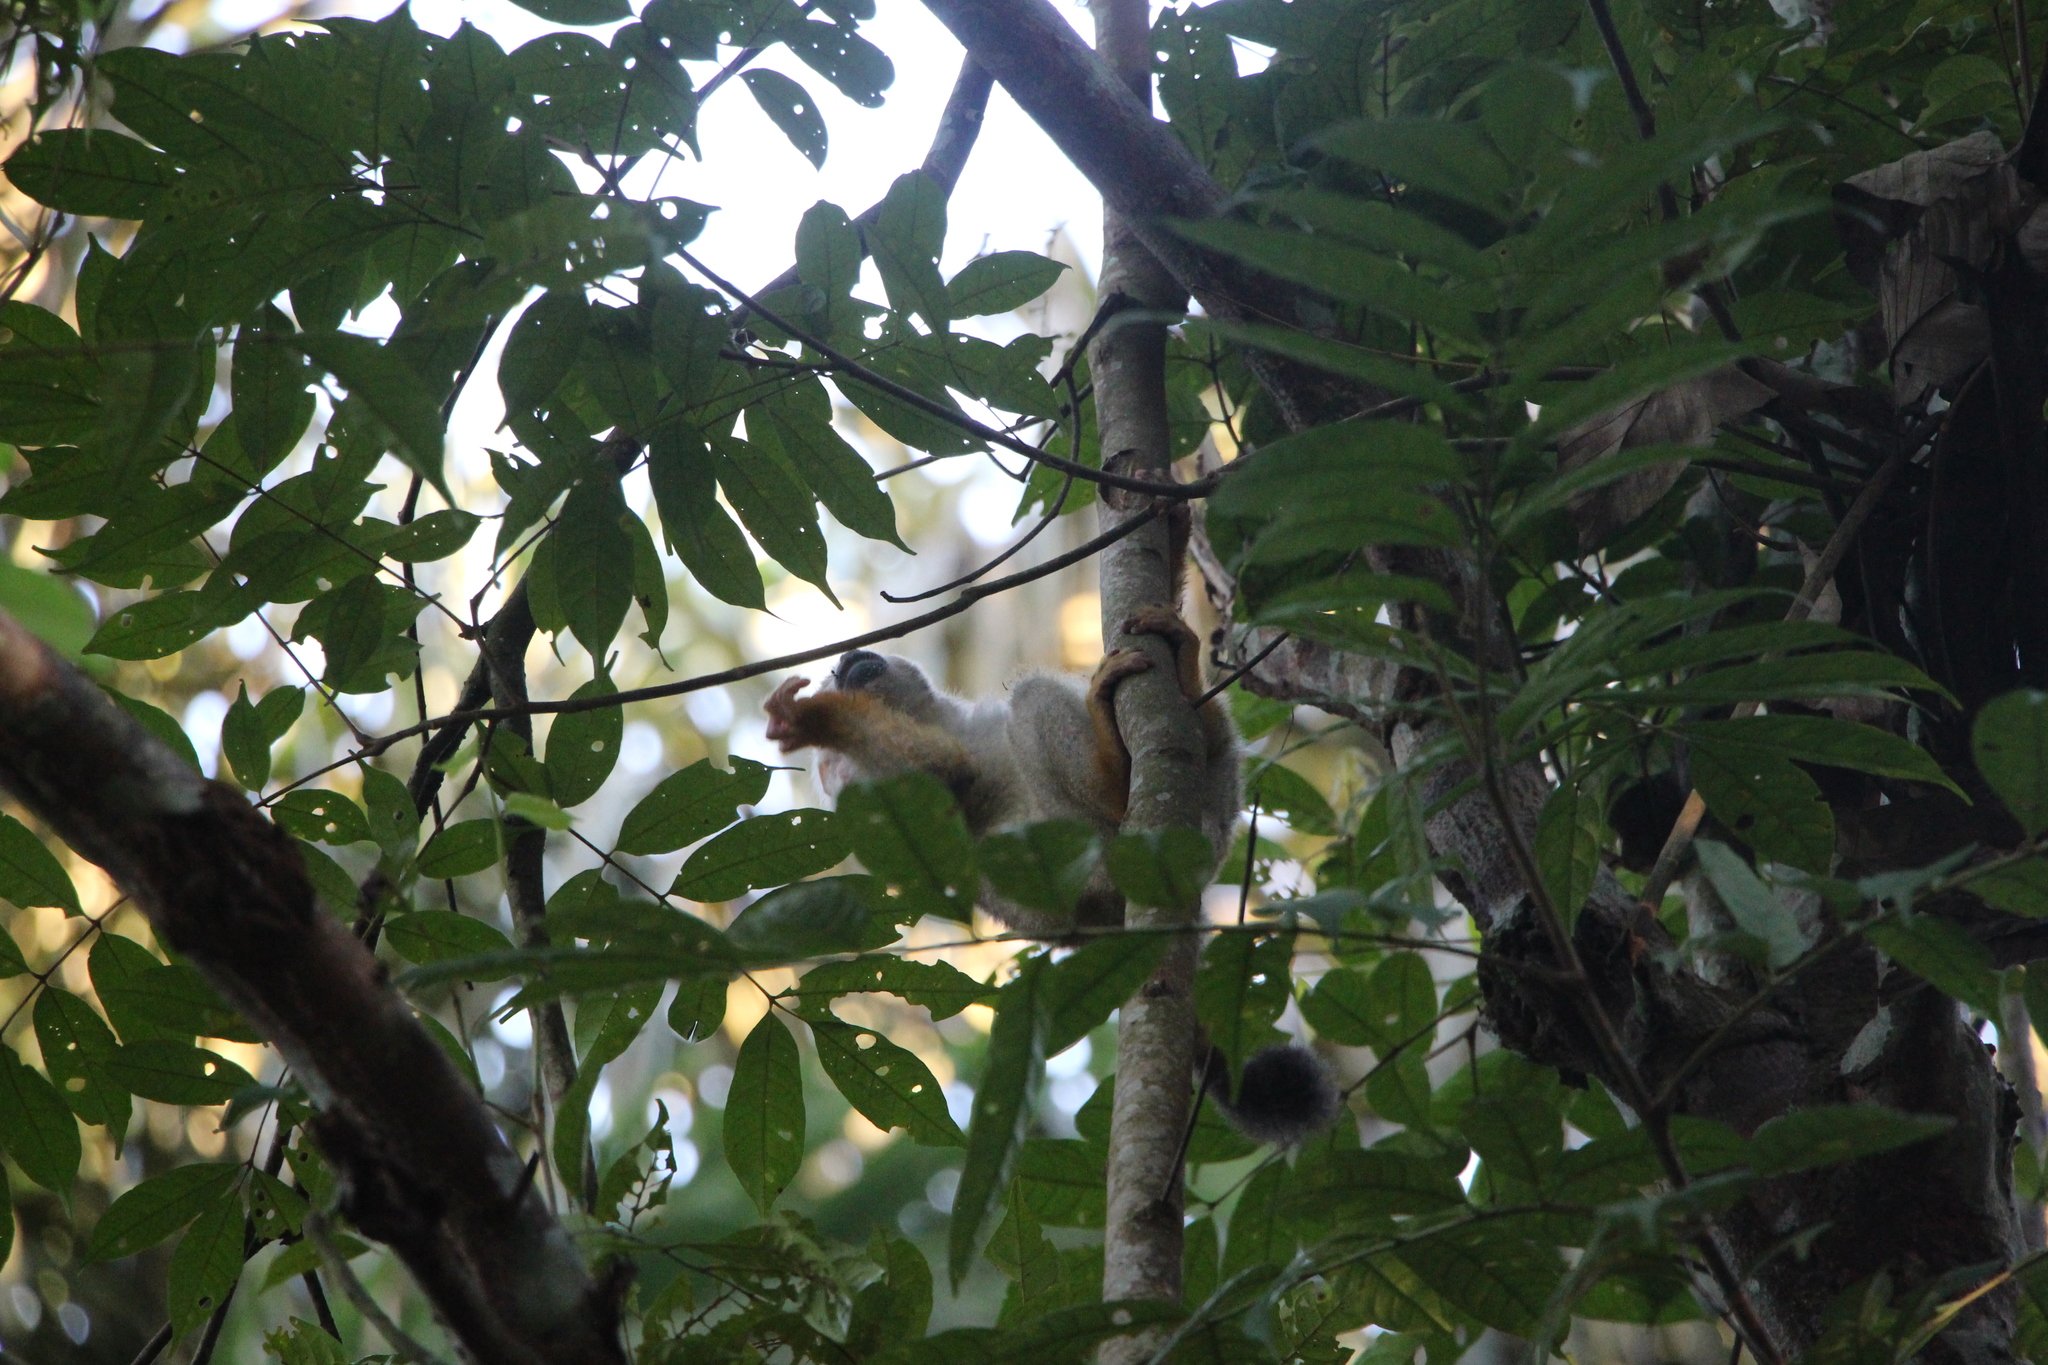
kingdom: Animalia
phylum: Chordata
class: Mammalia
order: Primates
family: Cebidae
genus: Saimiri
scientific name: Saimiri cassiquiarensis
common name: Humboldt’s squirrel monkey
